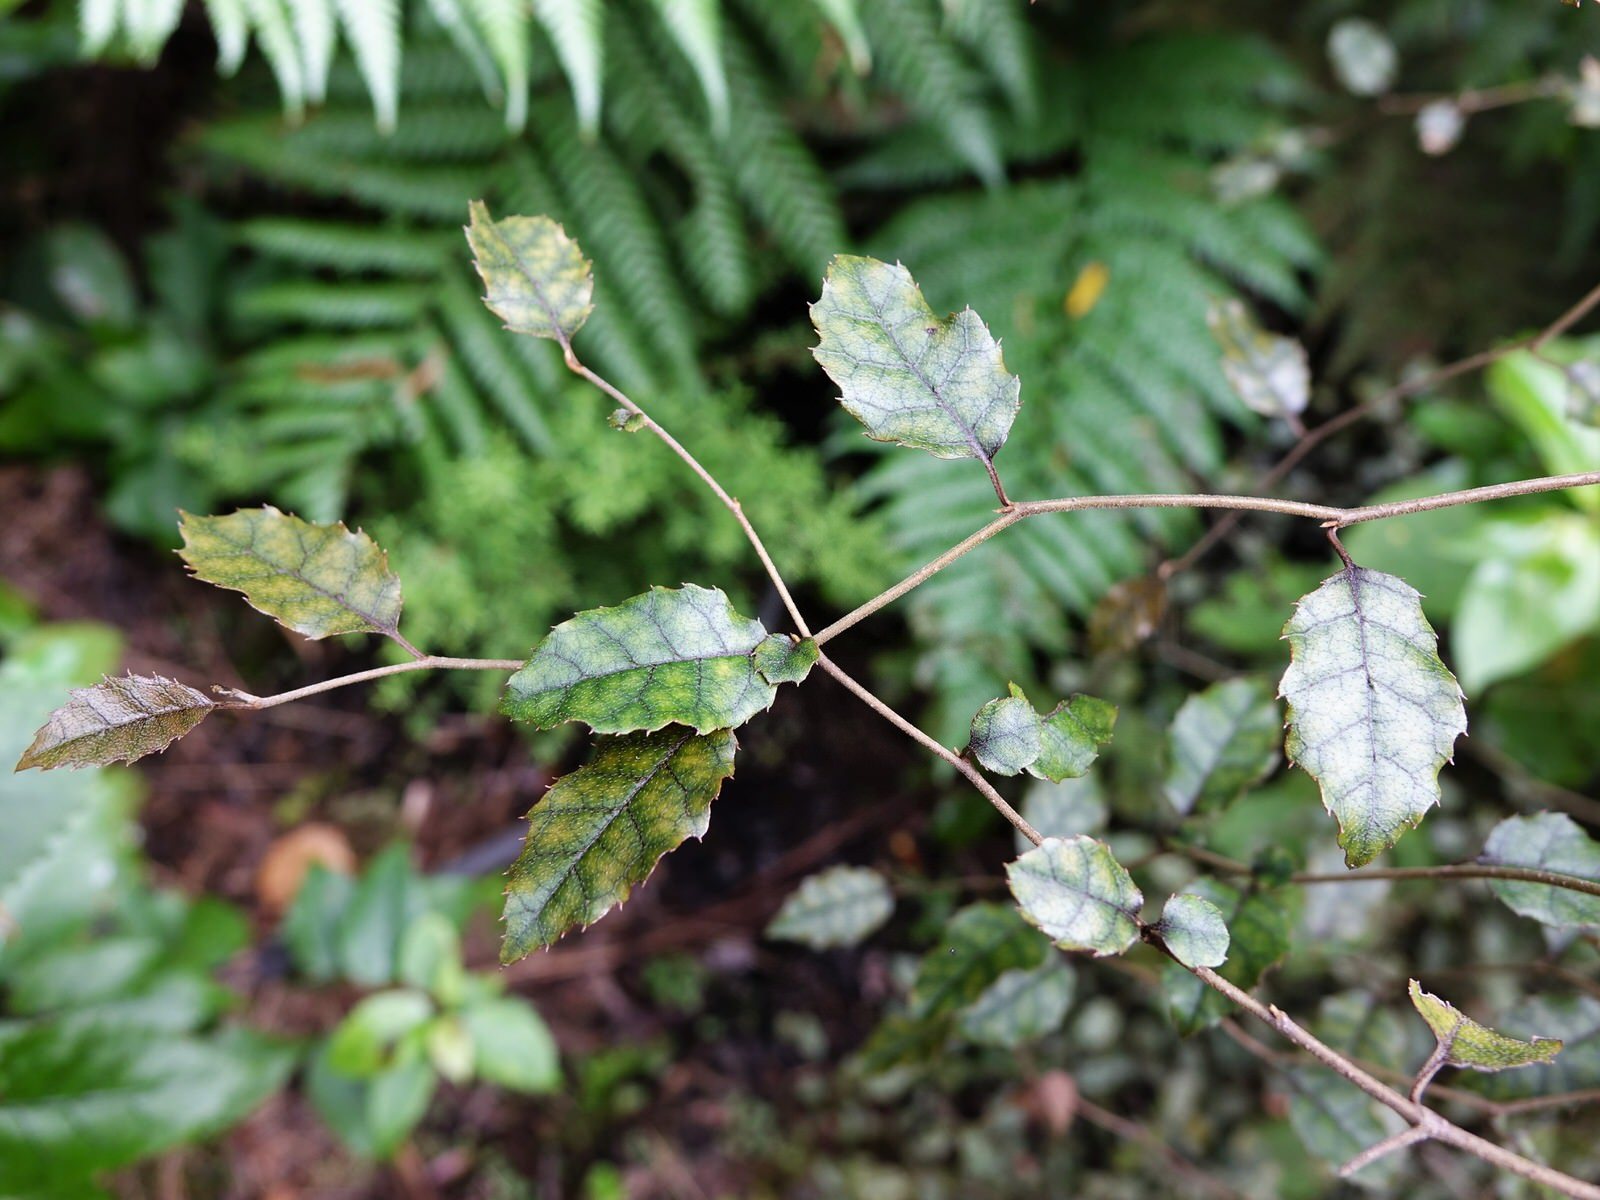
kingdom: Plantae
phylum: Tracheophyta
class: Magnoliopsida
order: Asterales
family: Rousseaceae
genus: Carpodetus
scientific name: Carpodetus serratus
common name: White mapau
